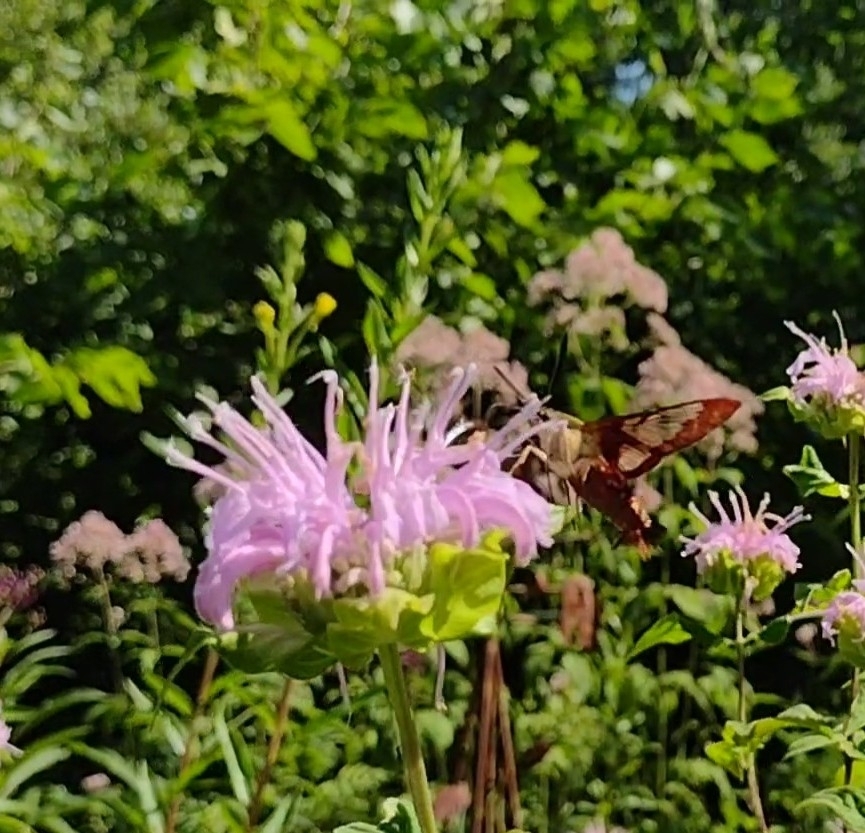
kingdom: Animalia
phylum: Arthropoda
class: Insecta
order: Lepidoptera
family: Sphingidae
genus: Hemaris
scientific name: Hemaris thysbe
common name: Common clear-wing
